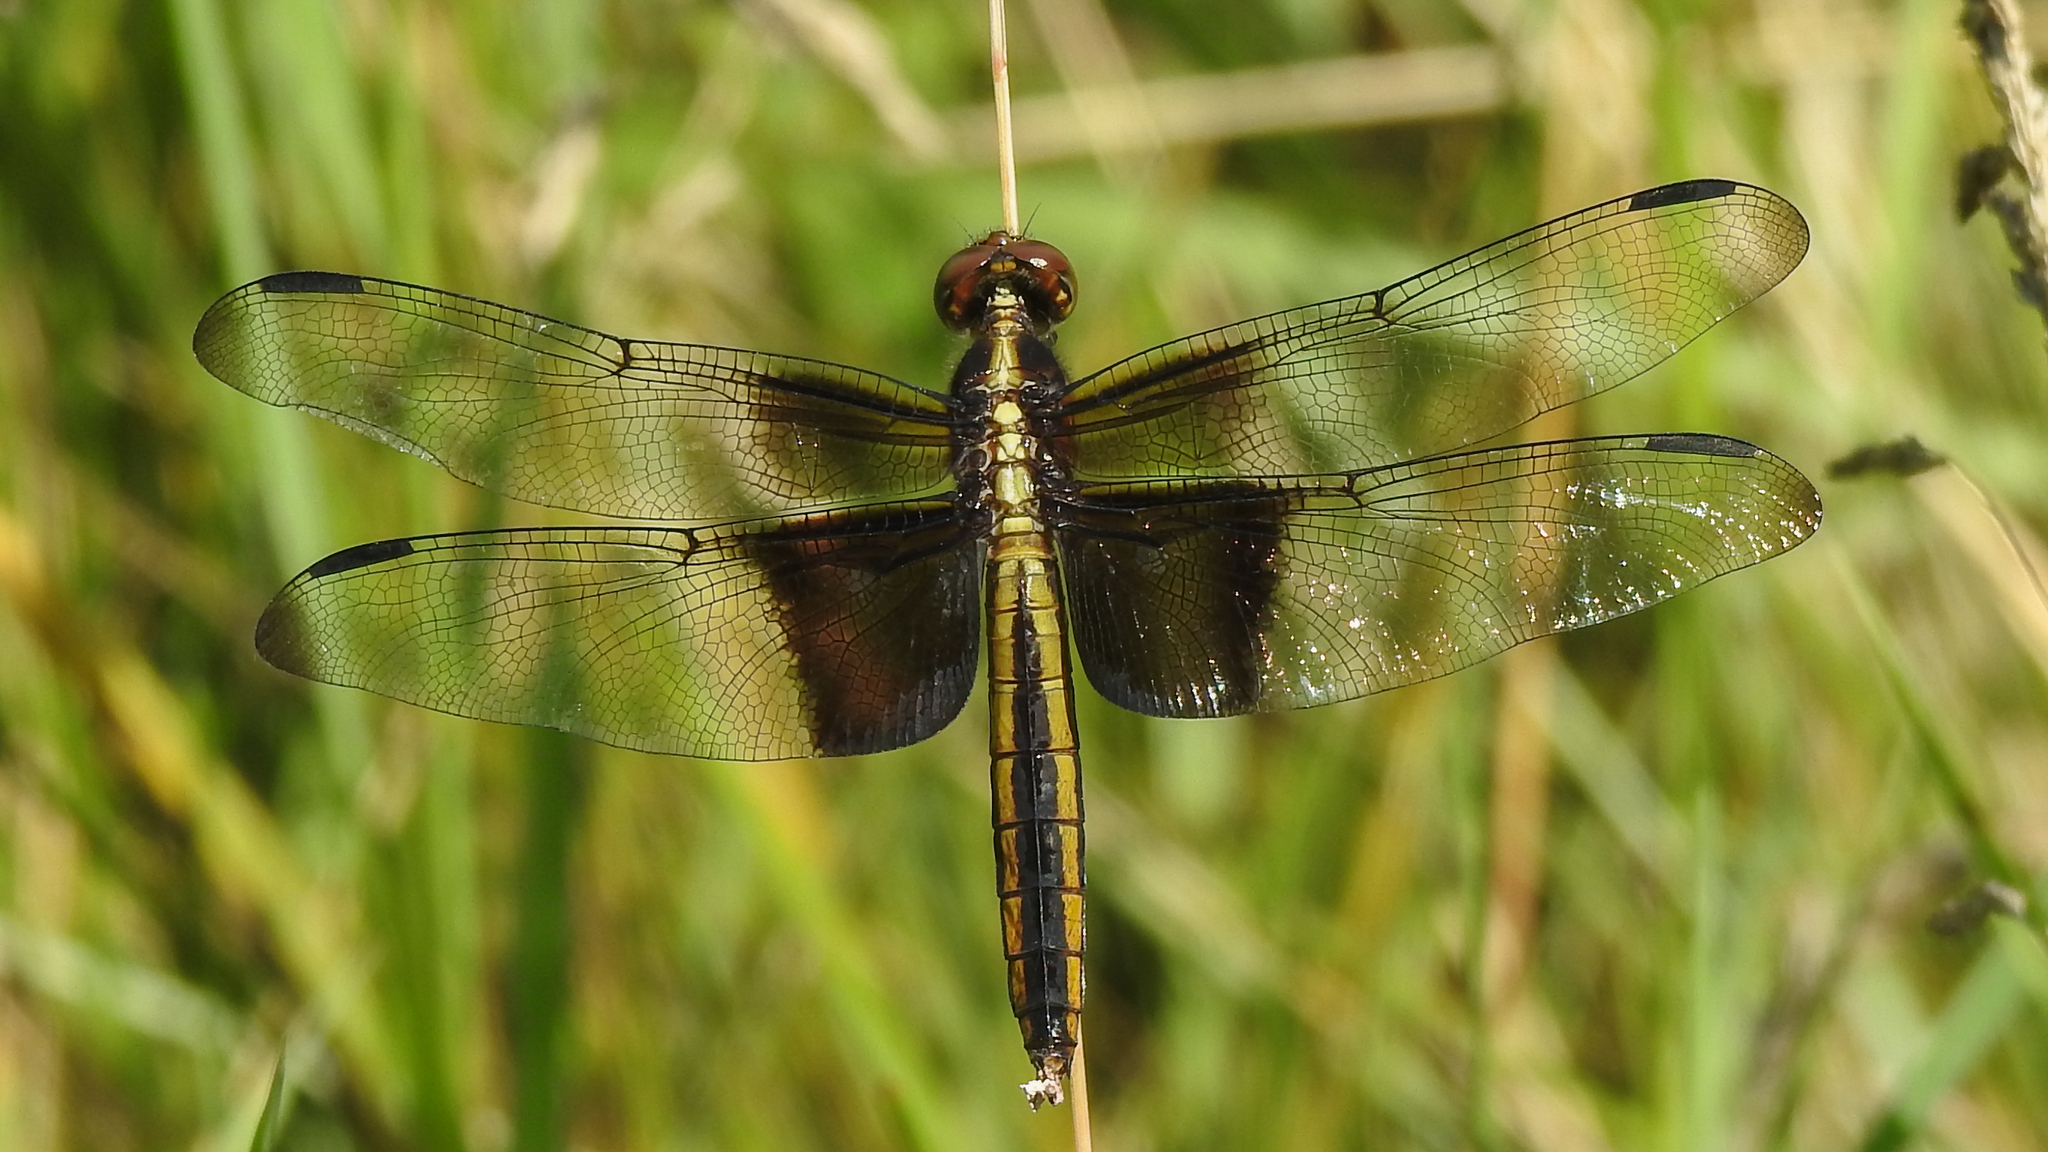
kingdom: Animalia
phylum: Arthropoda
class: Insecta
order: Odonata
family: Libellulidae
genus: Libellula
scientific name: Libellula luctuosa
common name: Widow skimmer
